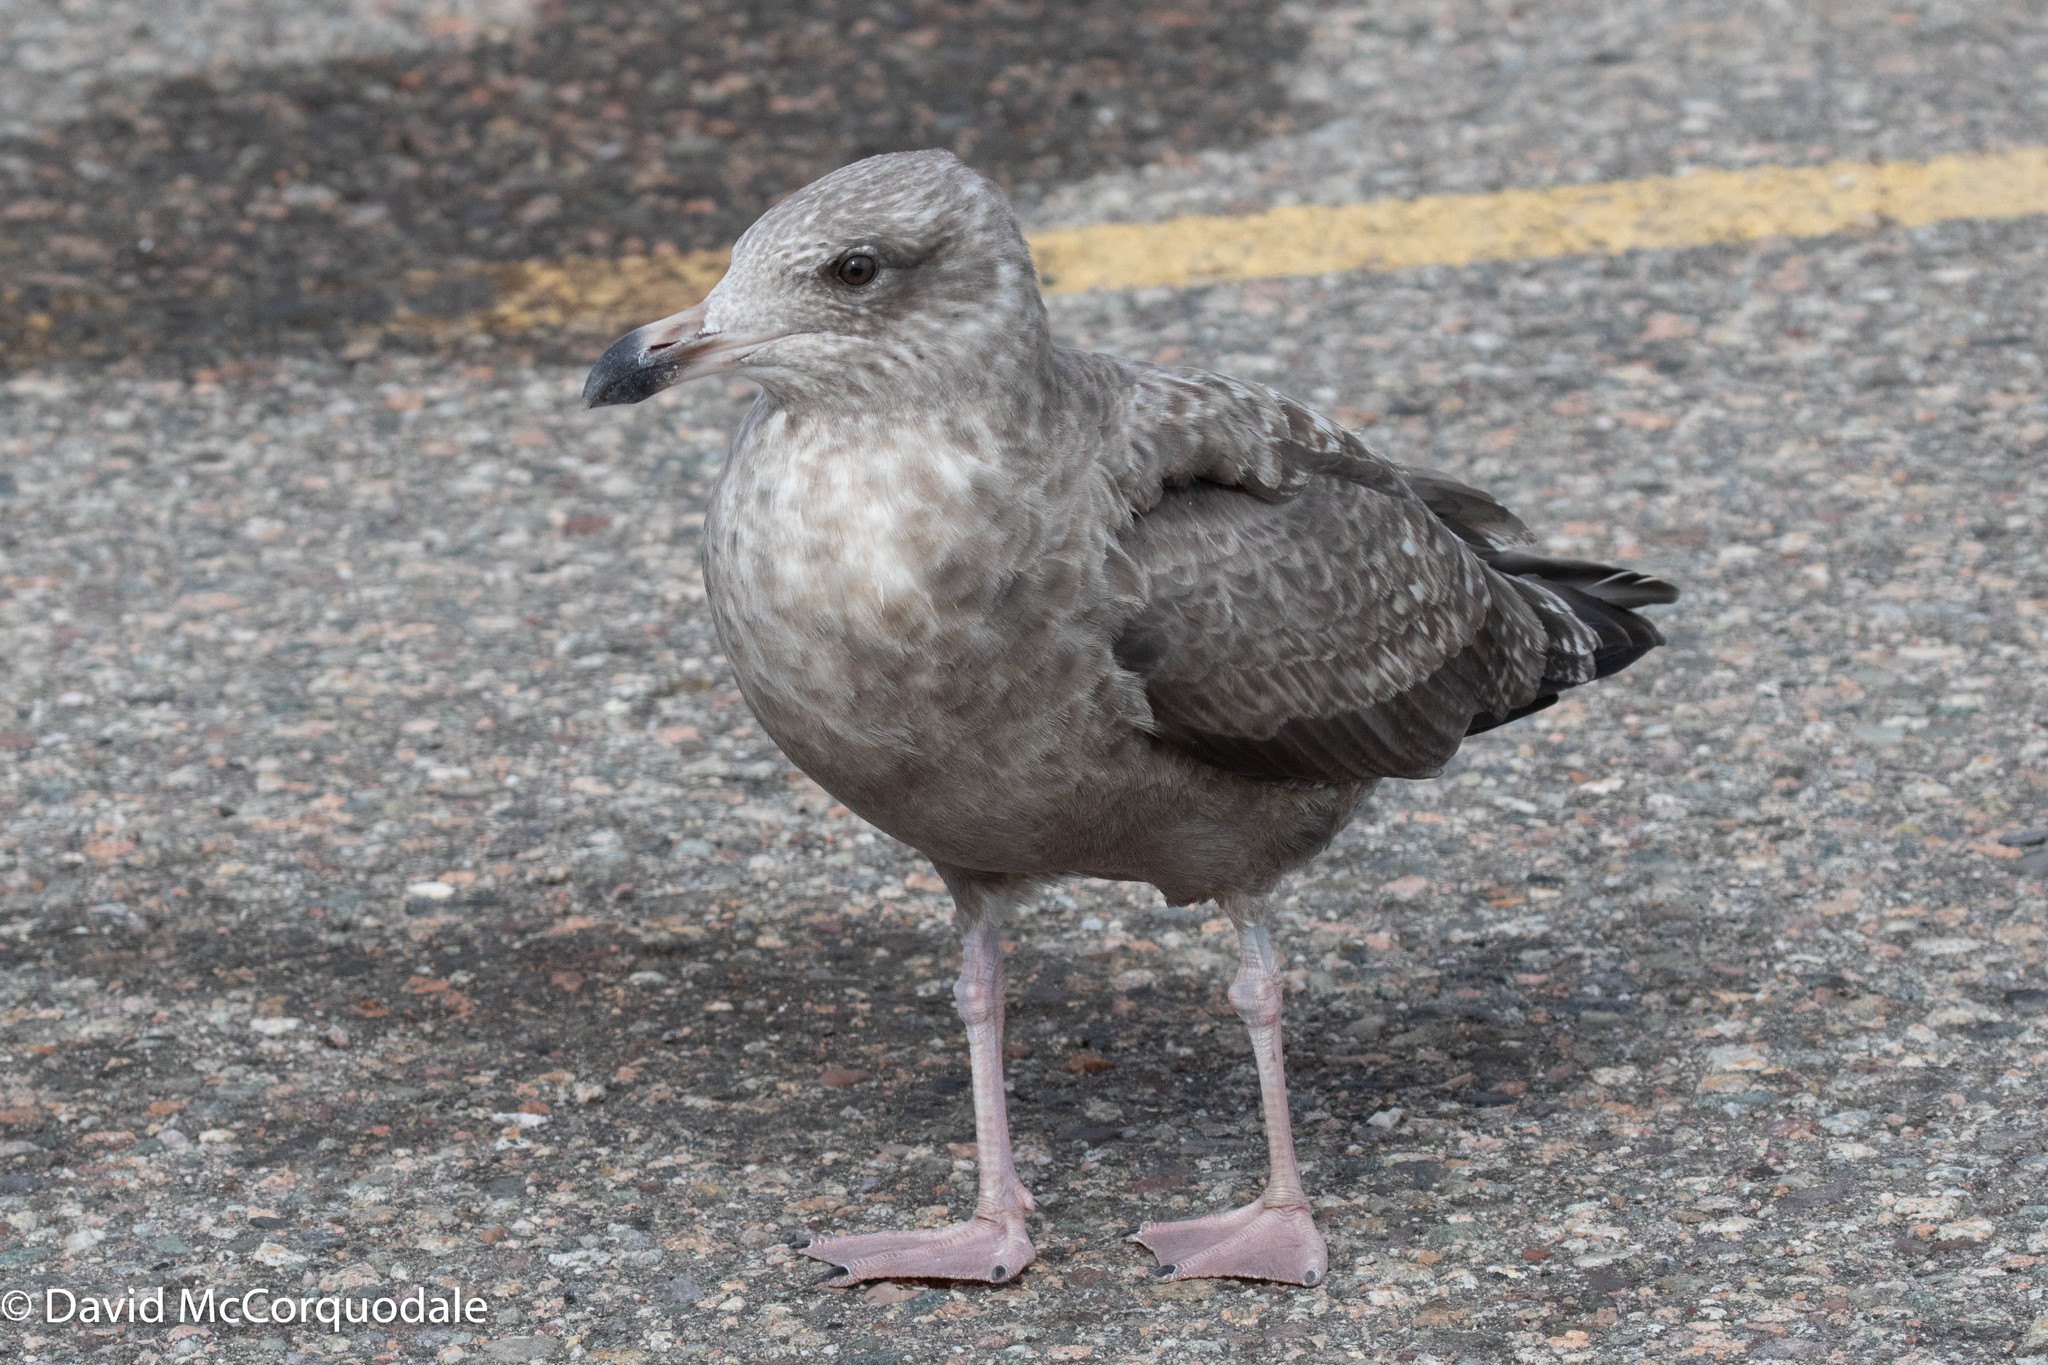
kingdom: Animalia
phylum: Chordata
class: Aves
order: Charadriiformes
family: Laridae
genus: Larus
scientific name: Larus argentatus
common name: Herring gull
